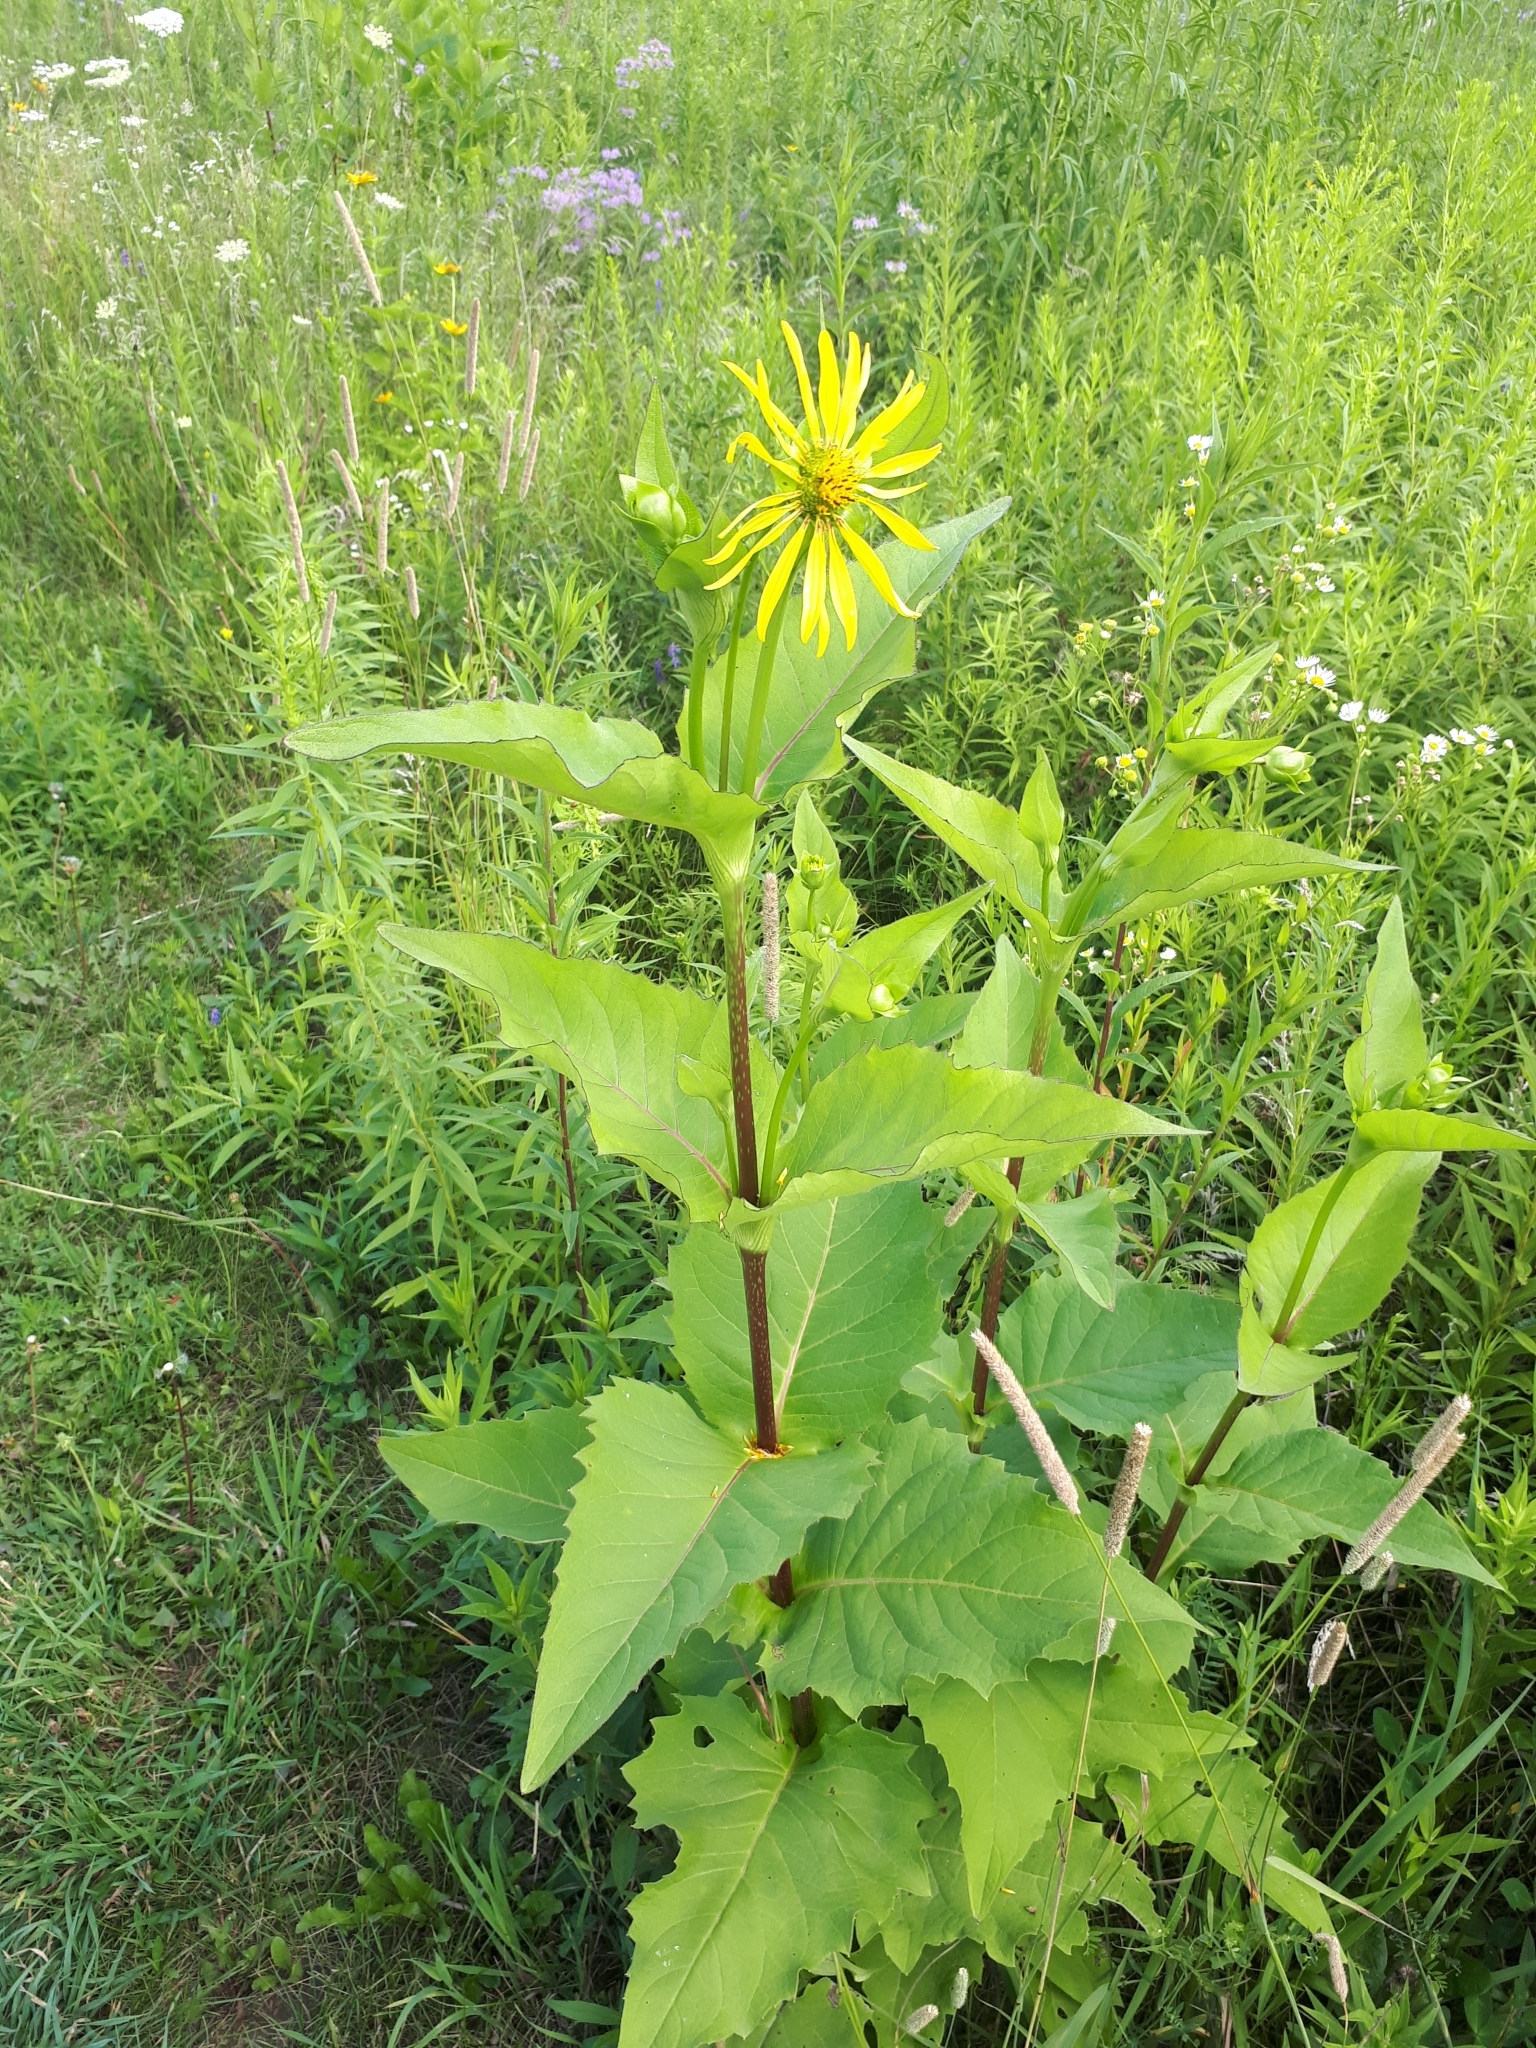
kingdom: Plantae
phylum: Tracheophyta
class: Magnoliopsida
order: Asterales
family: Asteraceae
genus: Silphium
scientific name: Silphium perfoliatum
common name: Cup-plant
